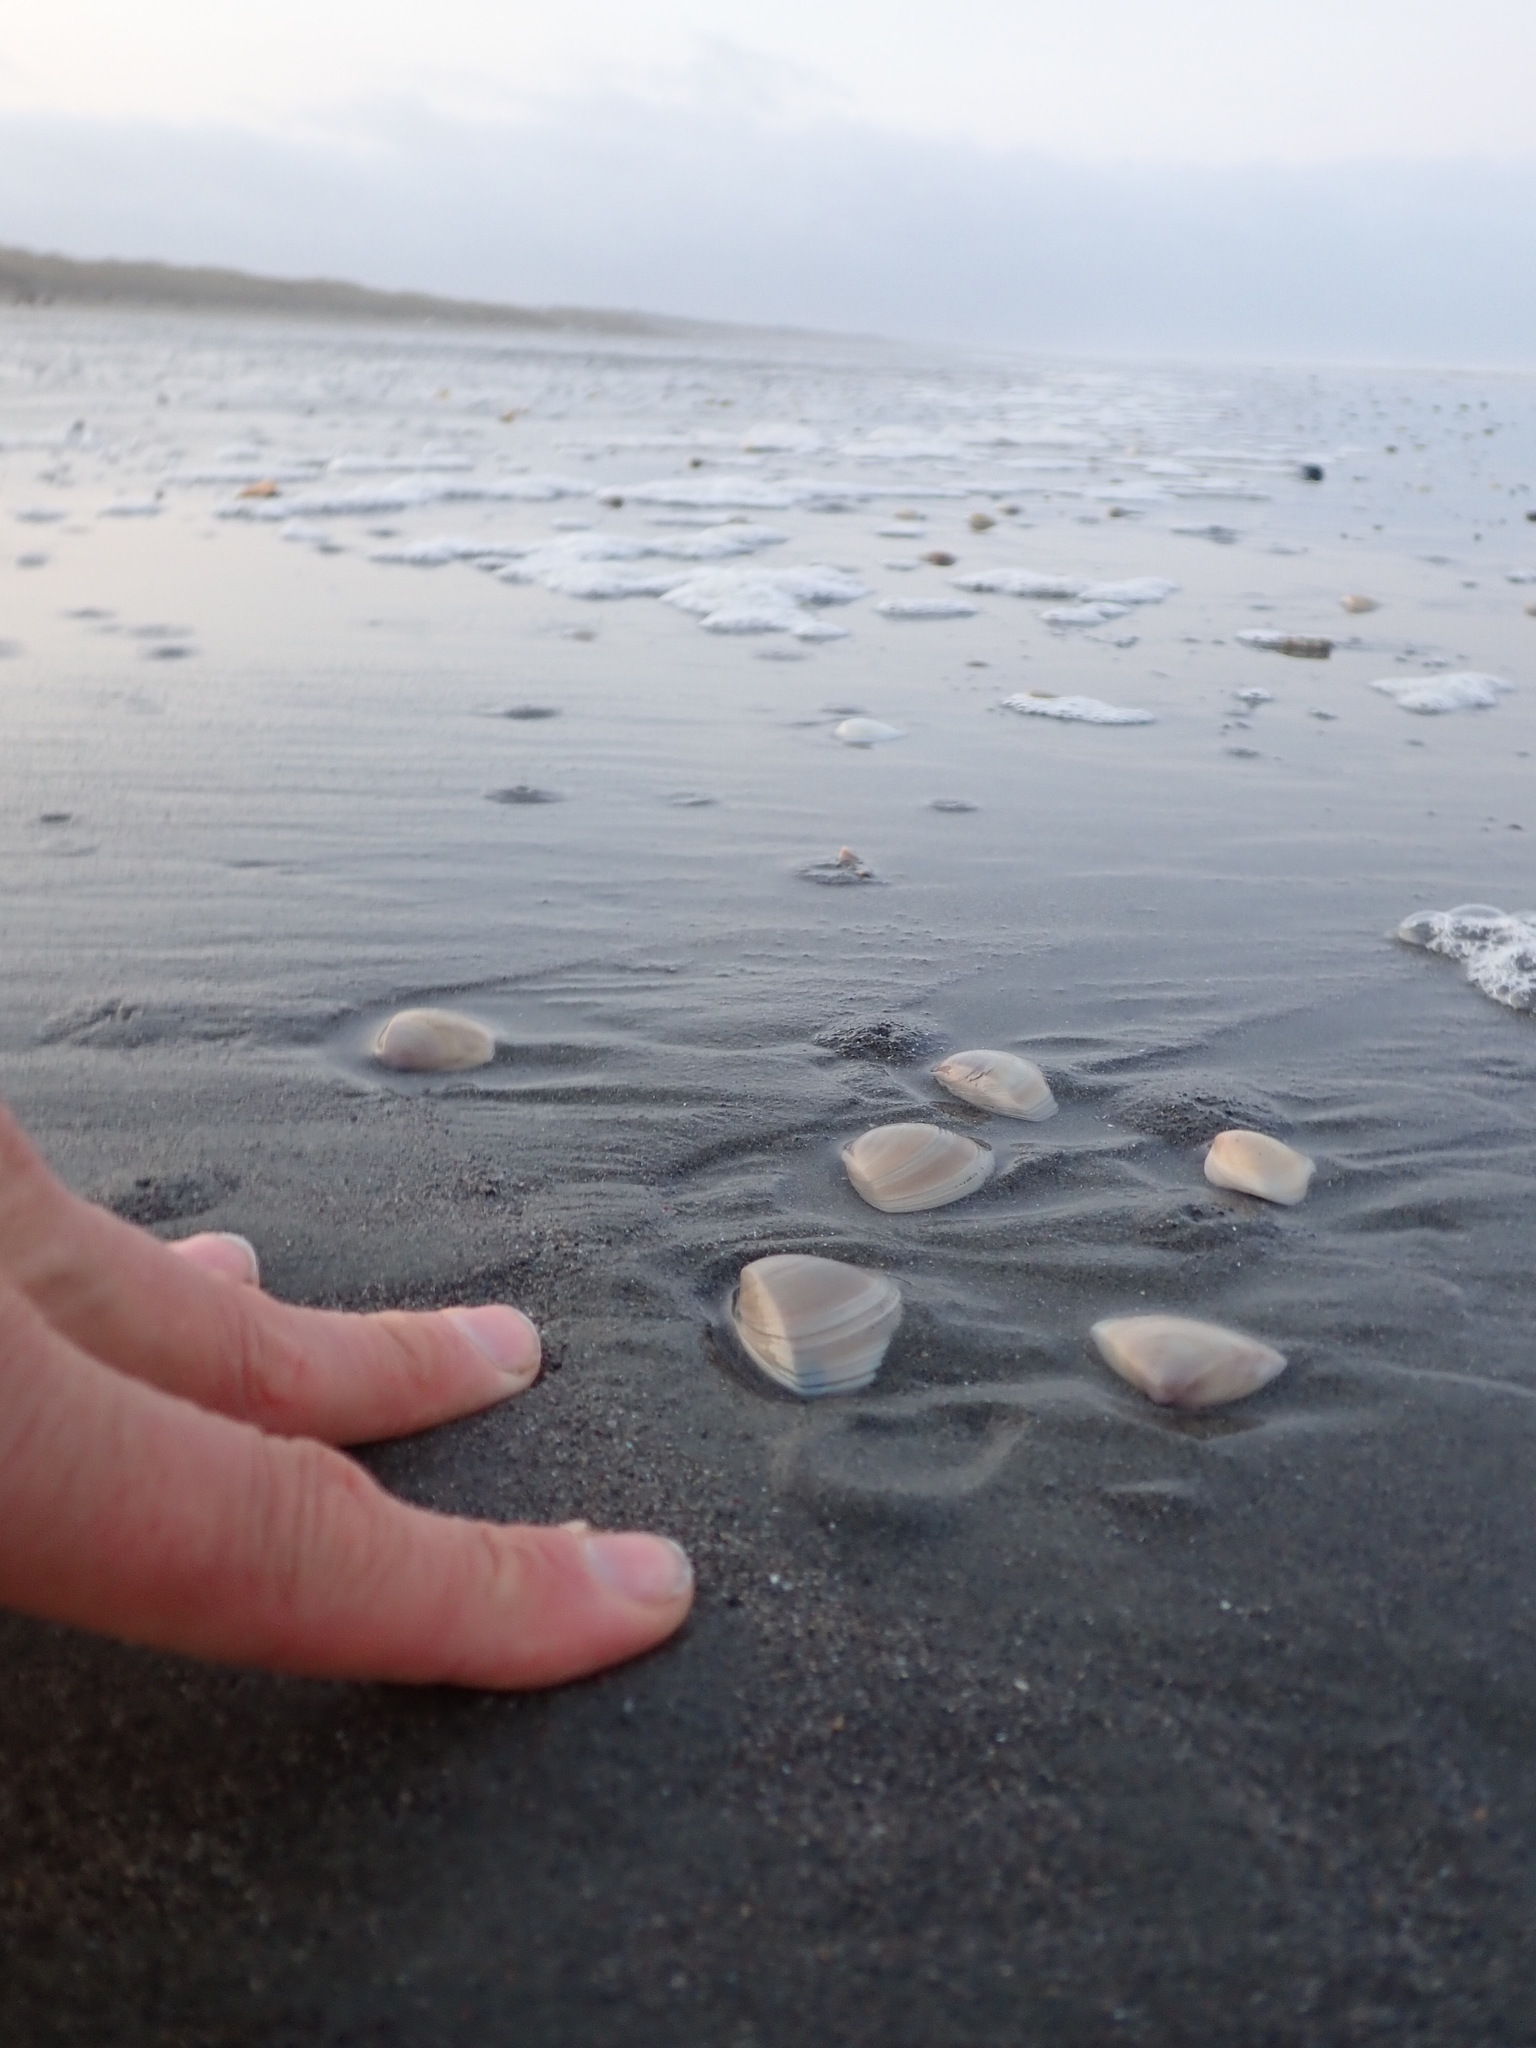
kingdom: Animalia
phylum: Mollusca
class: Bivalvia
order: Venerida
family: Mactridae
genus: Crassula
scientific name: Crassula aequilatera
